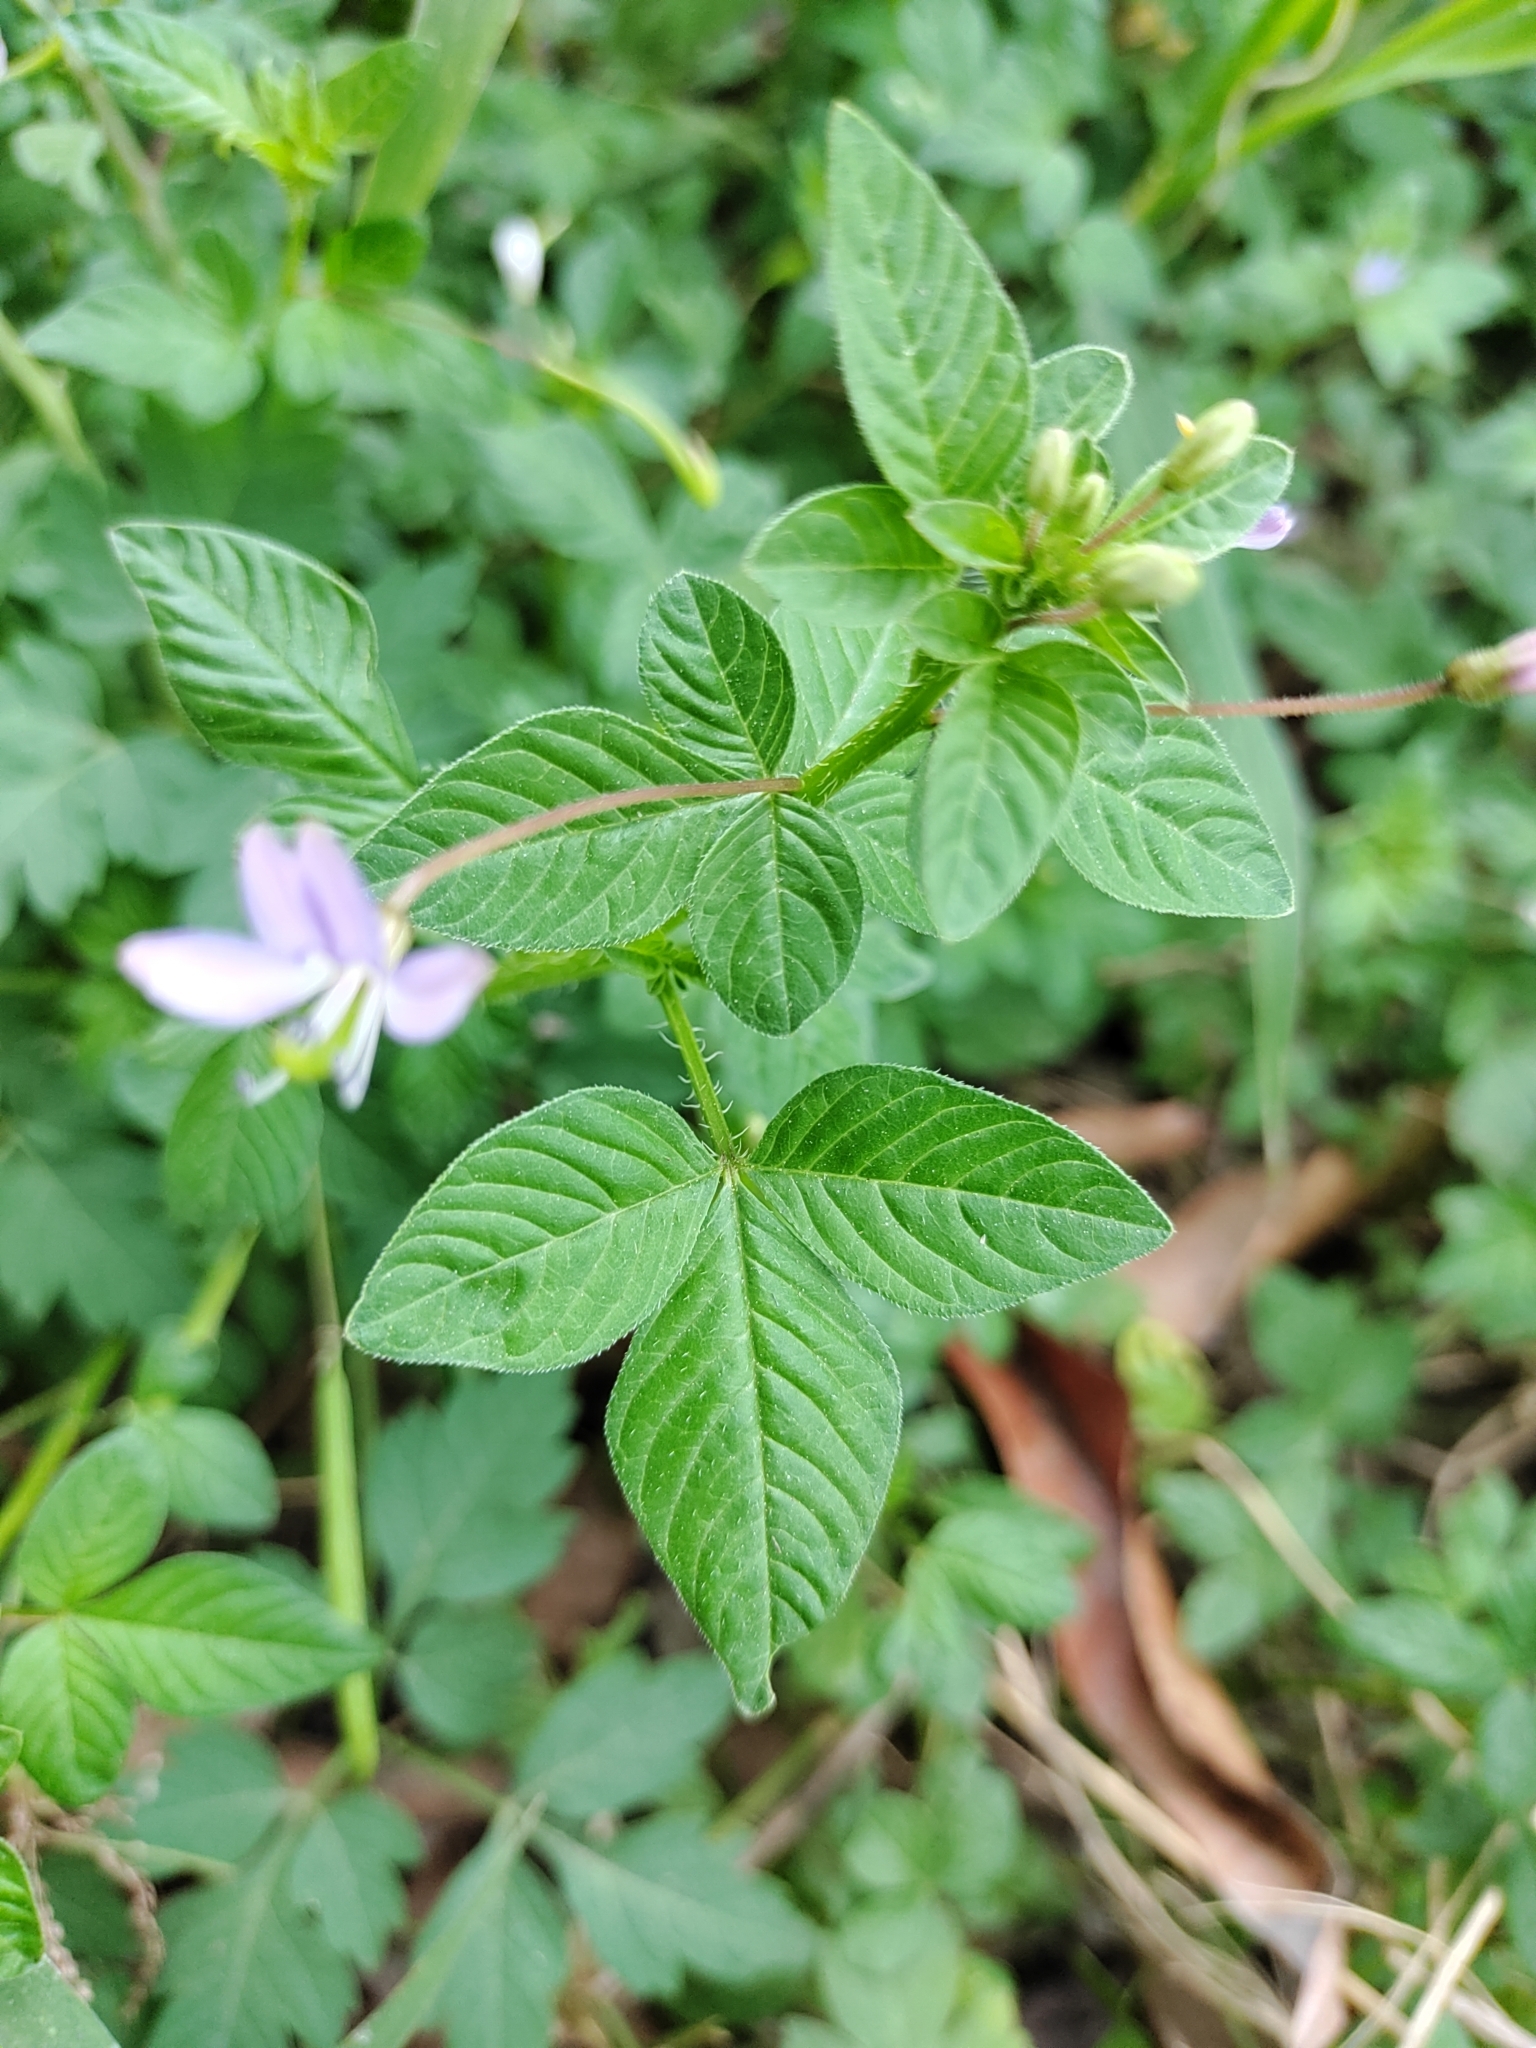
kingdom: Plantae
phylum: Tracheophyta
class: Magnoliopsida
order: Brassicales
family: Cleomaceae
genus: Sieruela
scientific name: Sieruela rutidosperma
